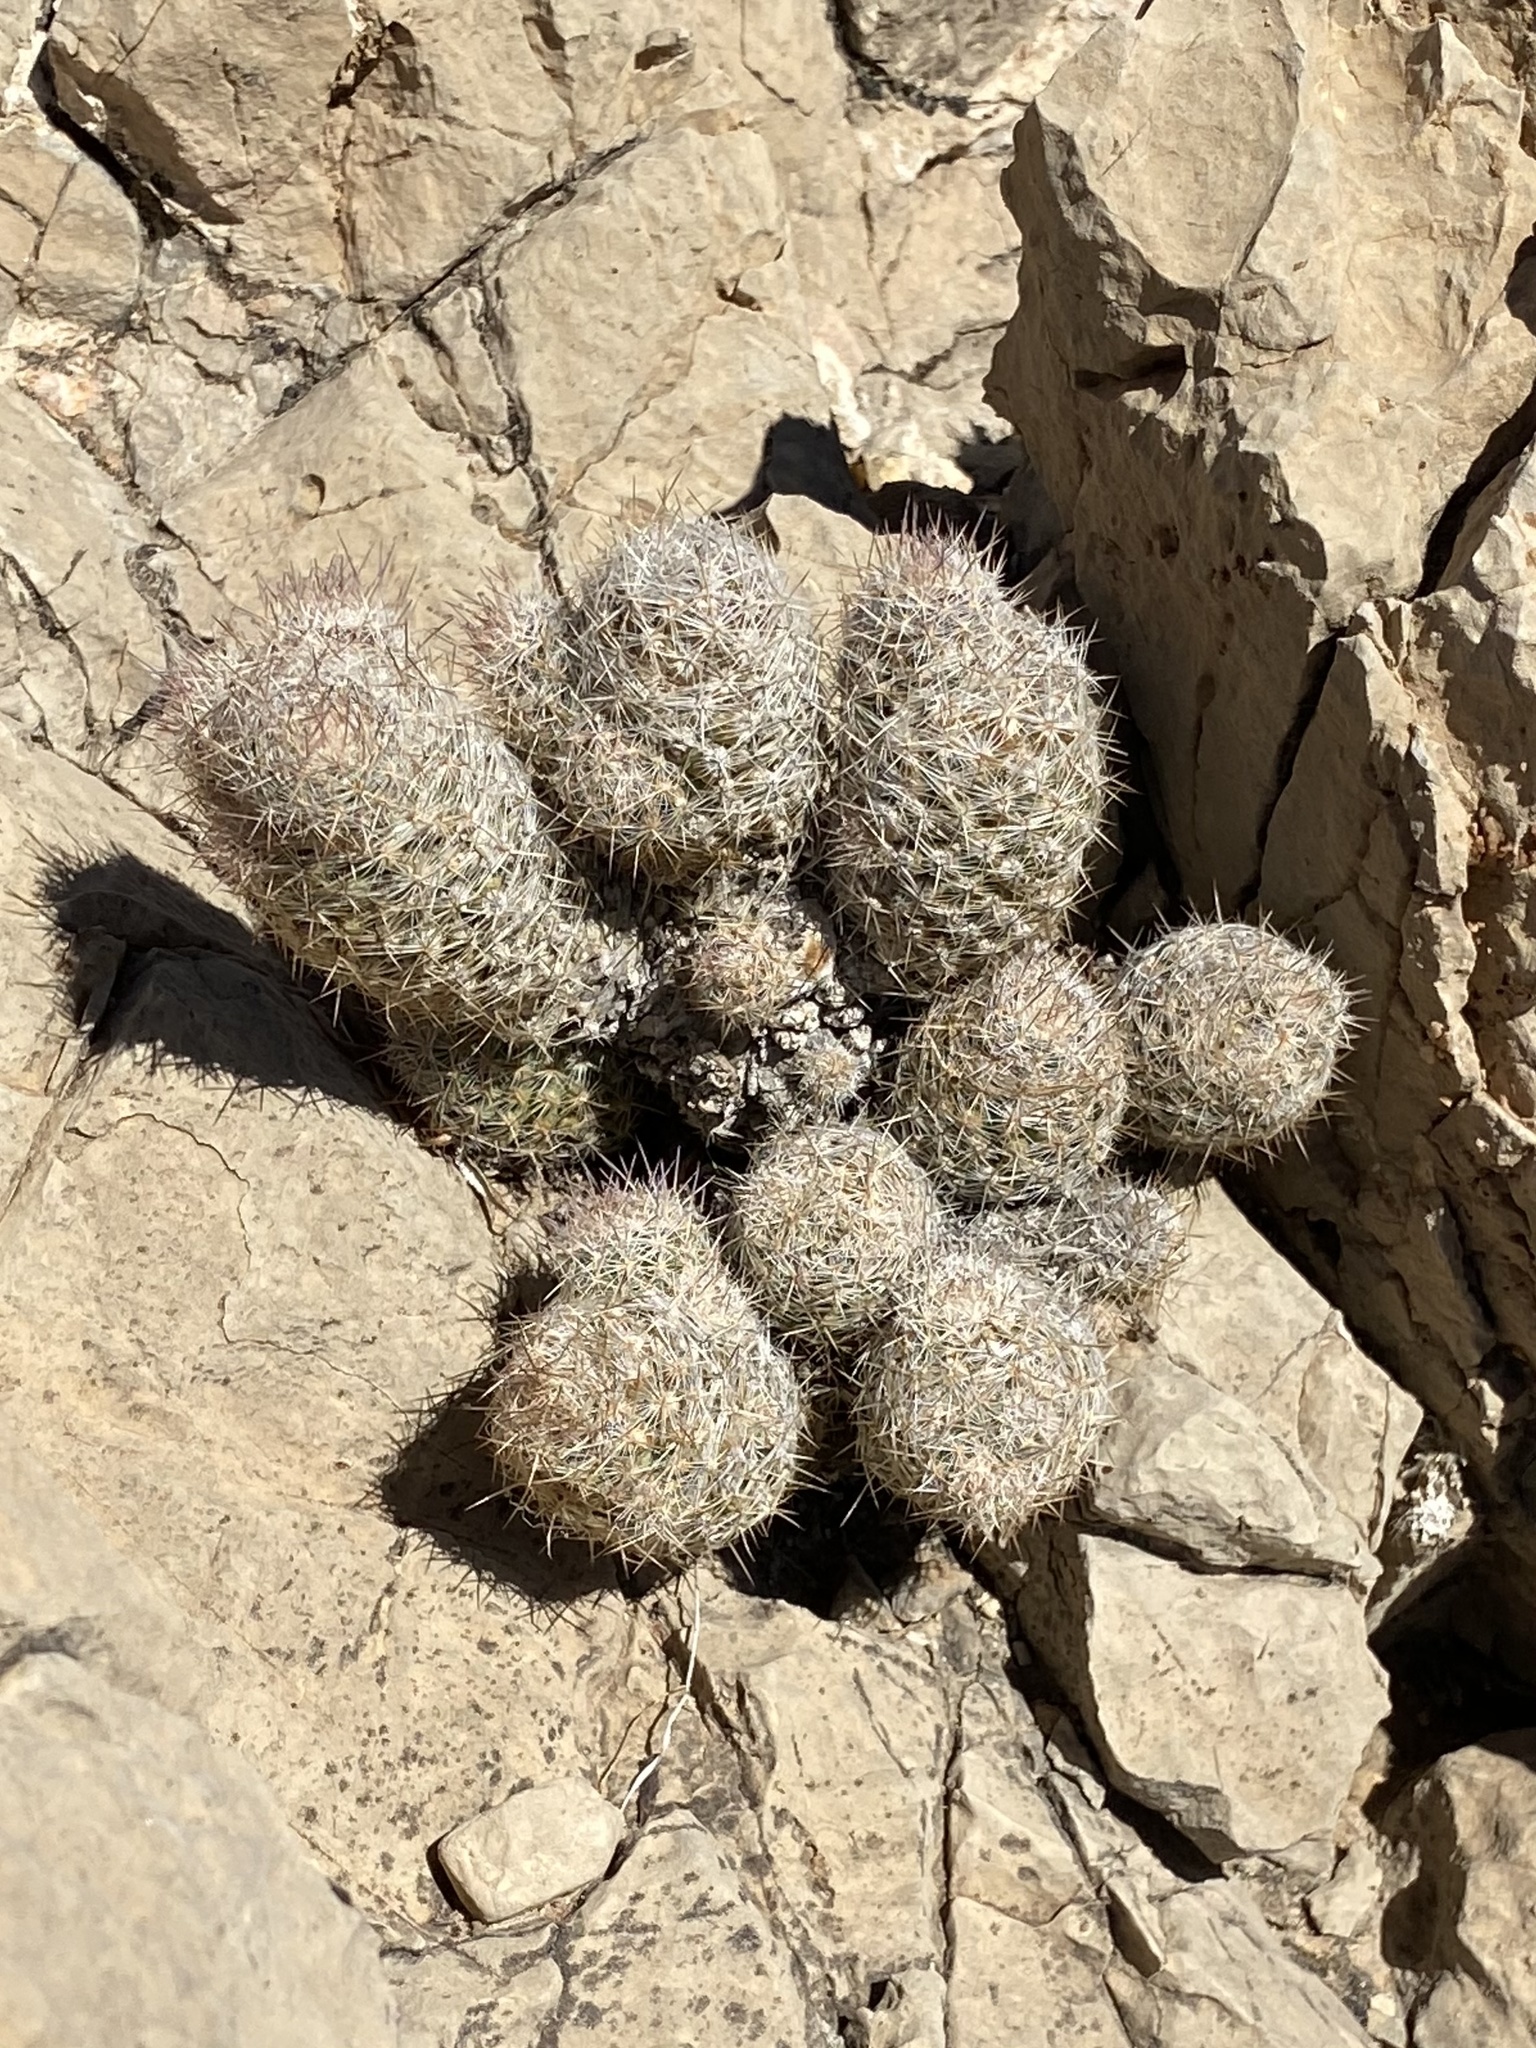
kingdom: Plantae
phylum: Tracheophyta
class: Magnoliopsida
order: Caryophyllales
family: Cactaceae
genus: Pelecyphora
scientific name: Pelecyphora tuberculosa
